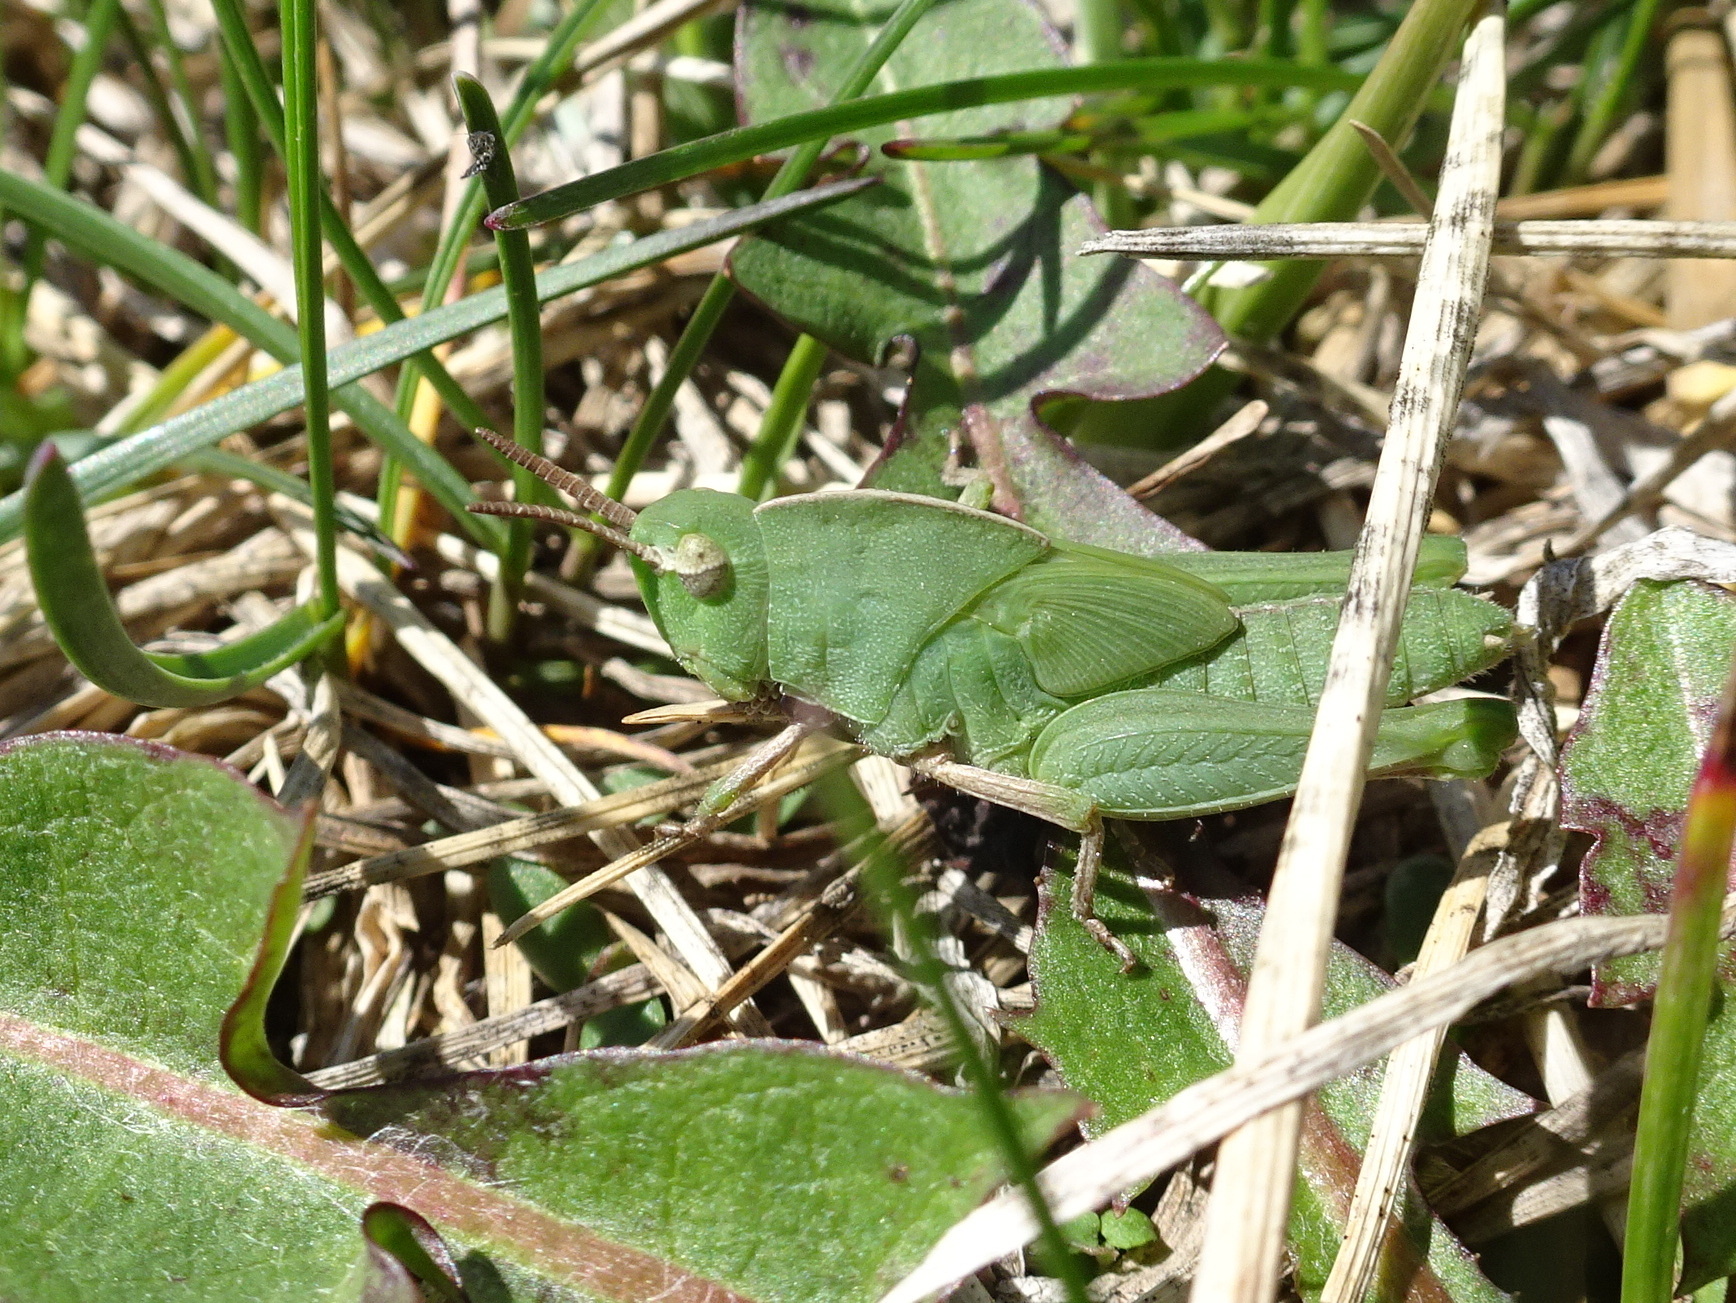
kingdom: Animalia
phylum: Arthropoda
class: Insecta
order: Orthoptera
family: Acrididae
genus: Chortophaga
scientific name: Chortophaga viridifasciata
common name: Green-striped grasshopper
